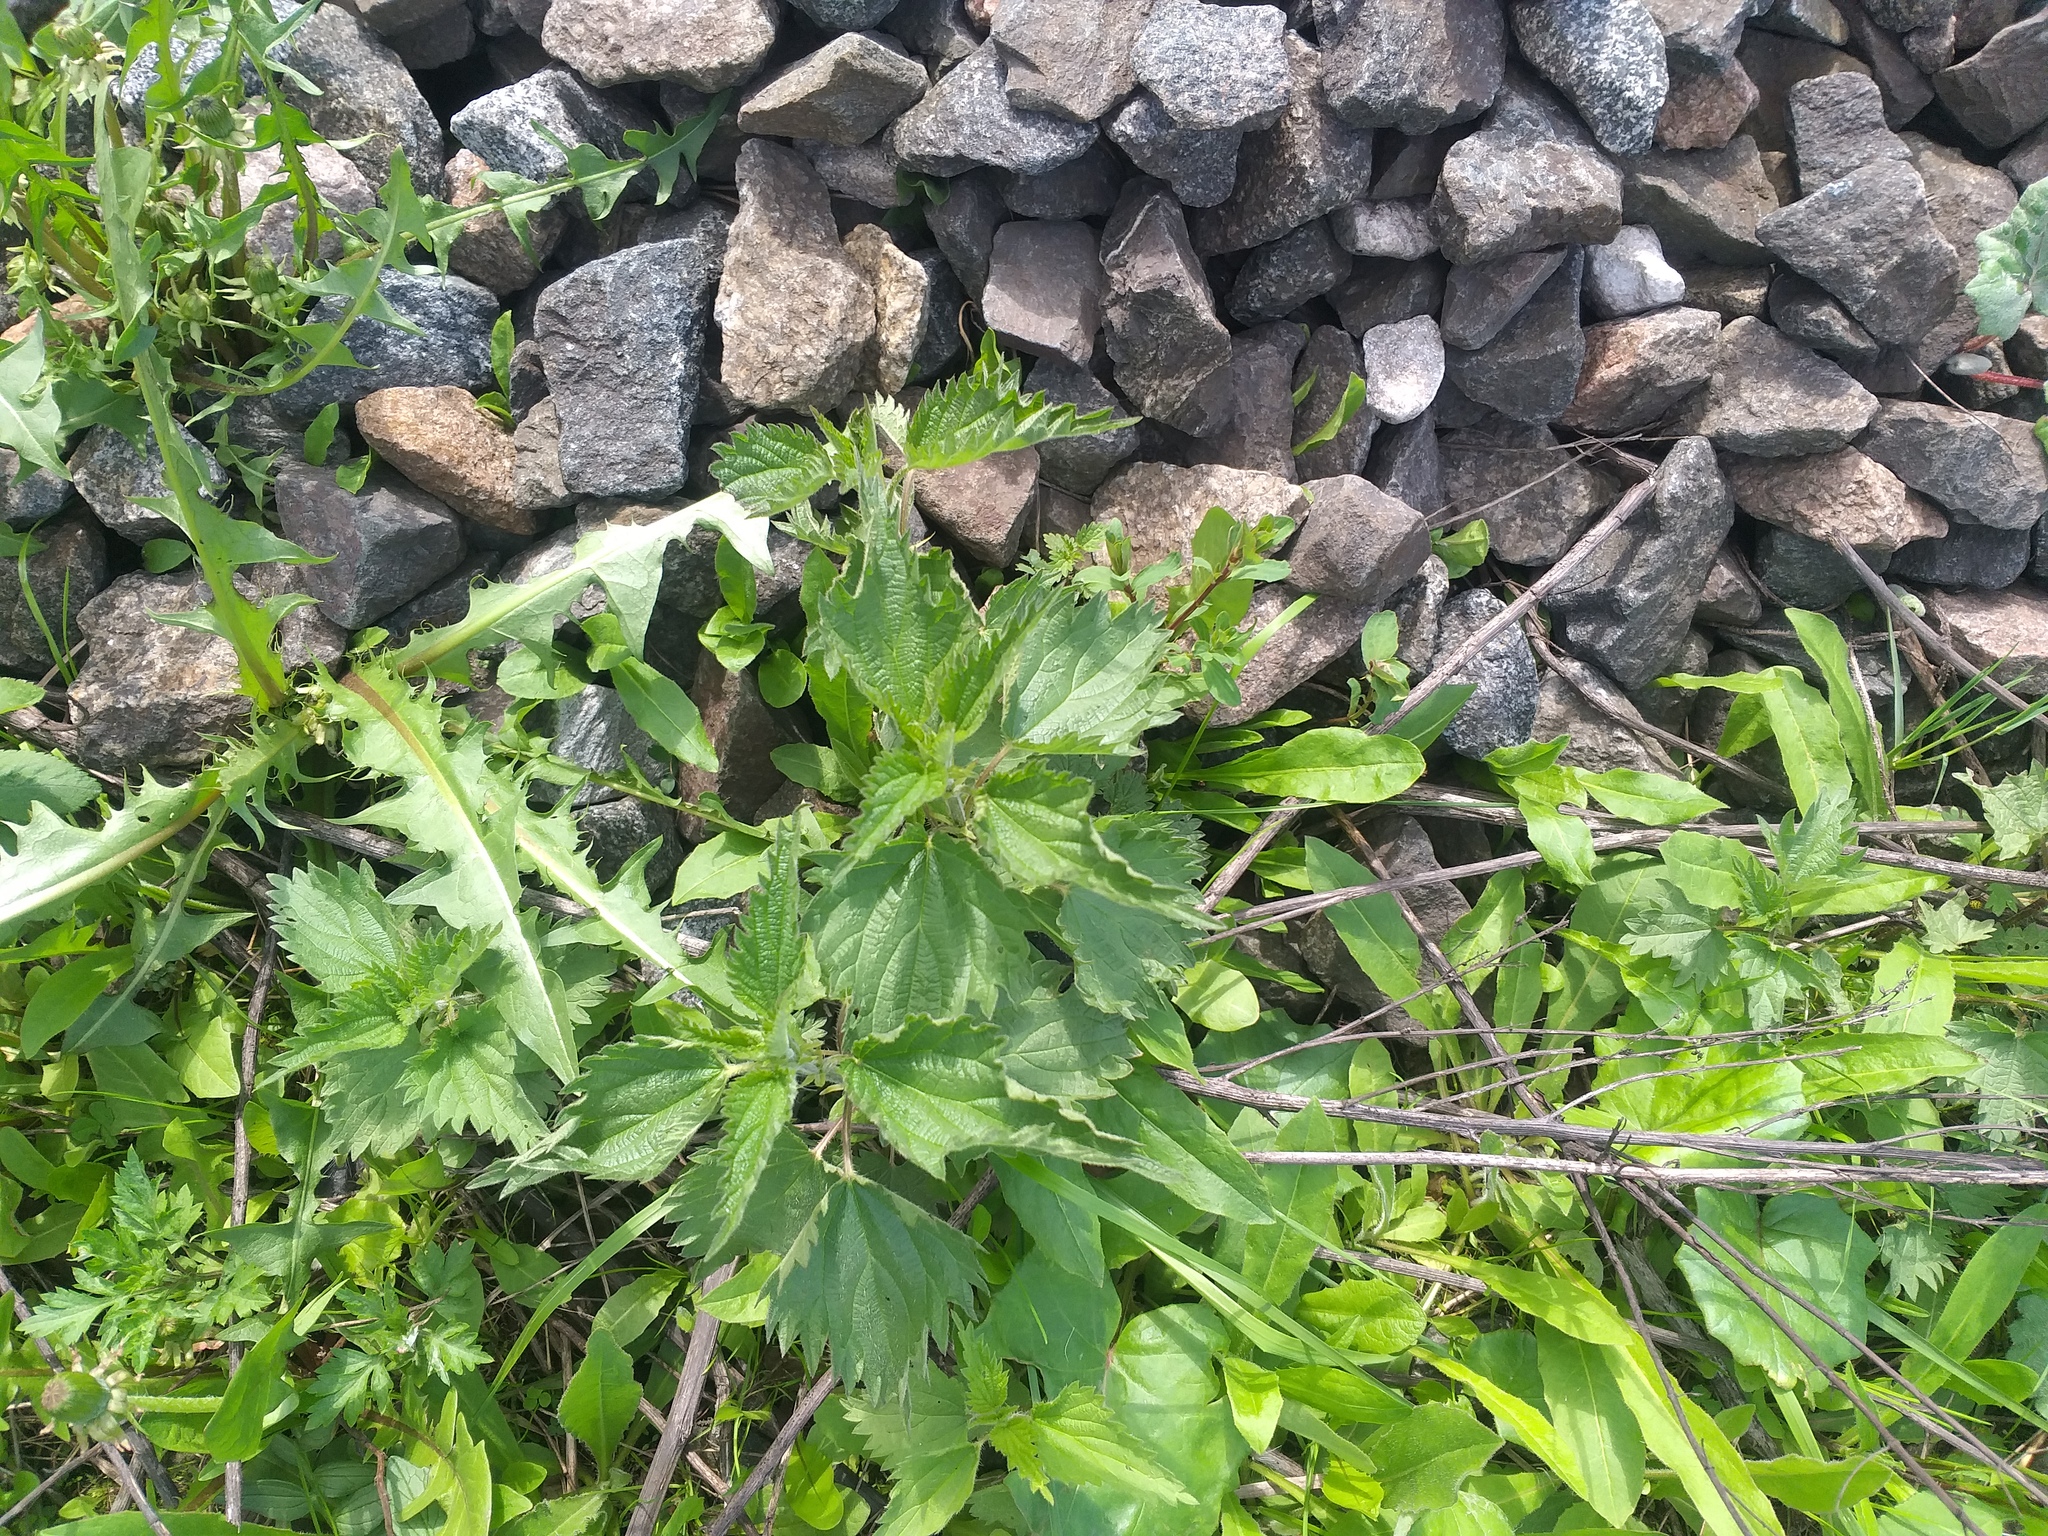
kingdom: Plantae
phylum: Tracheophyta
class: Magnoliopsida
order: Rosales
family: Urticaceae
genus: Urtica
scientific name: Urtica dioica
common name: Common nettle
